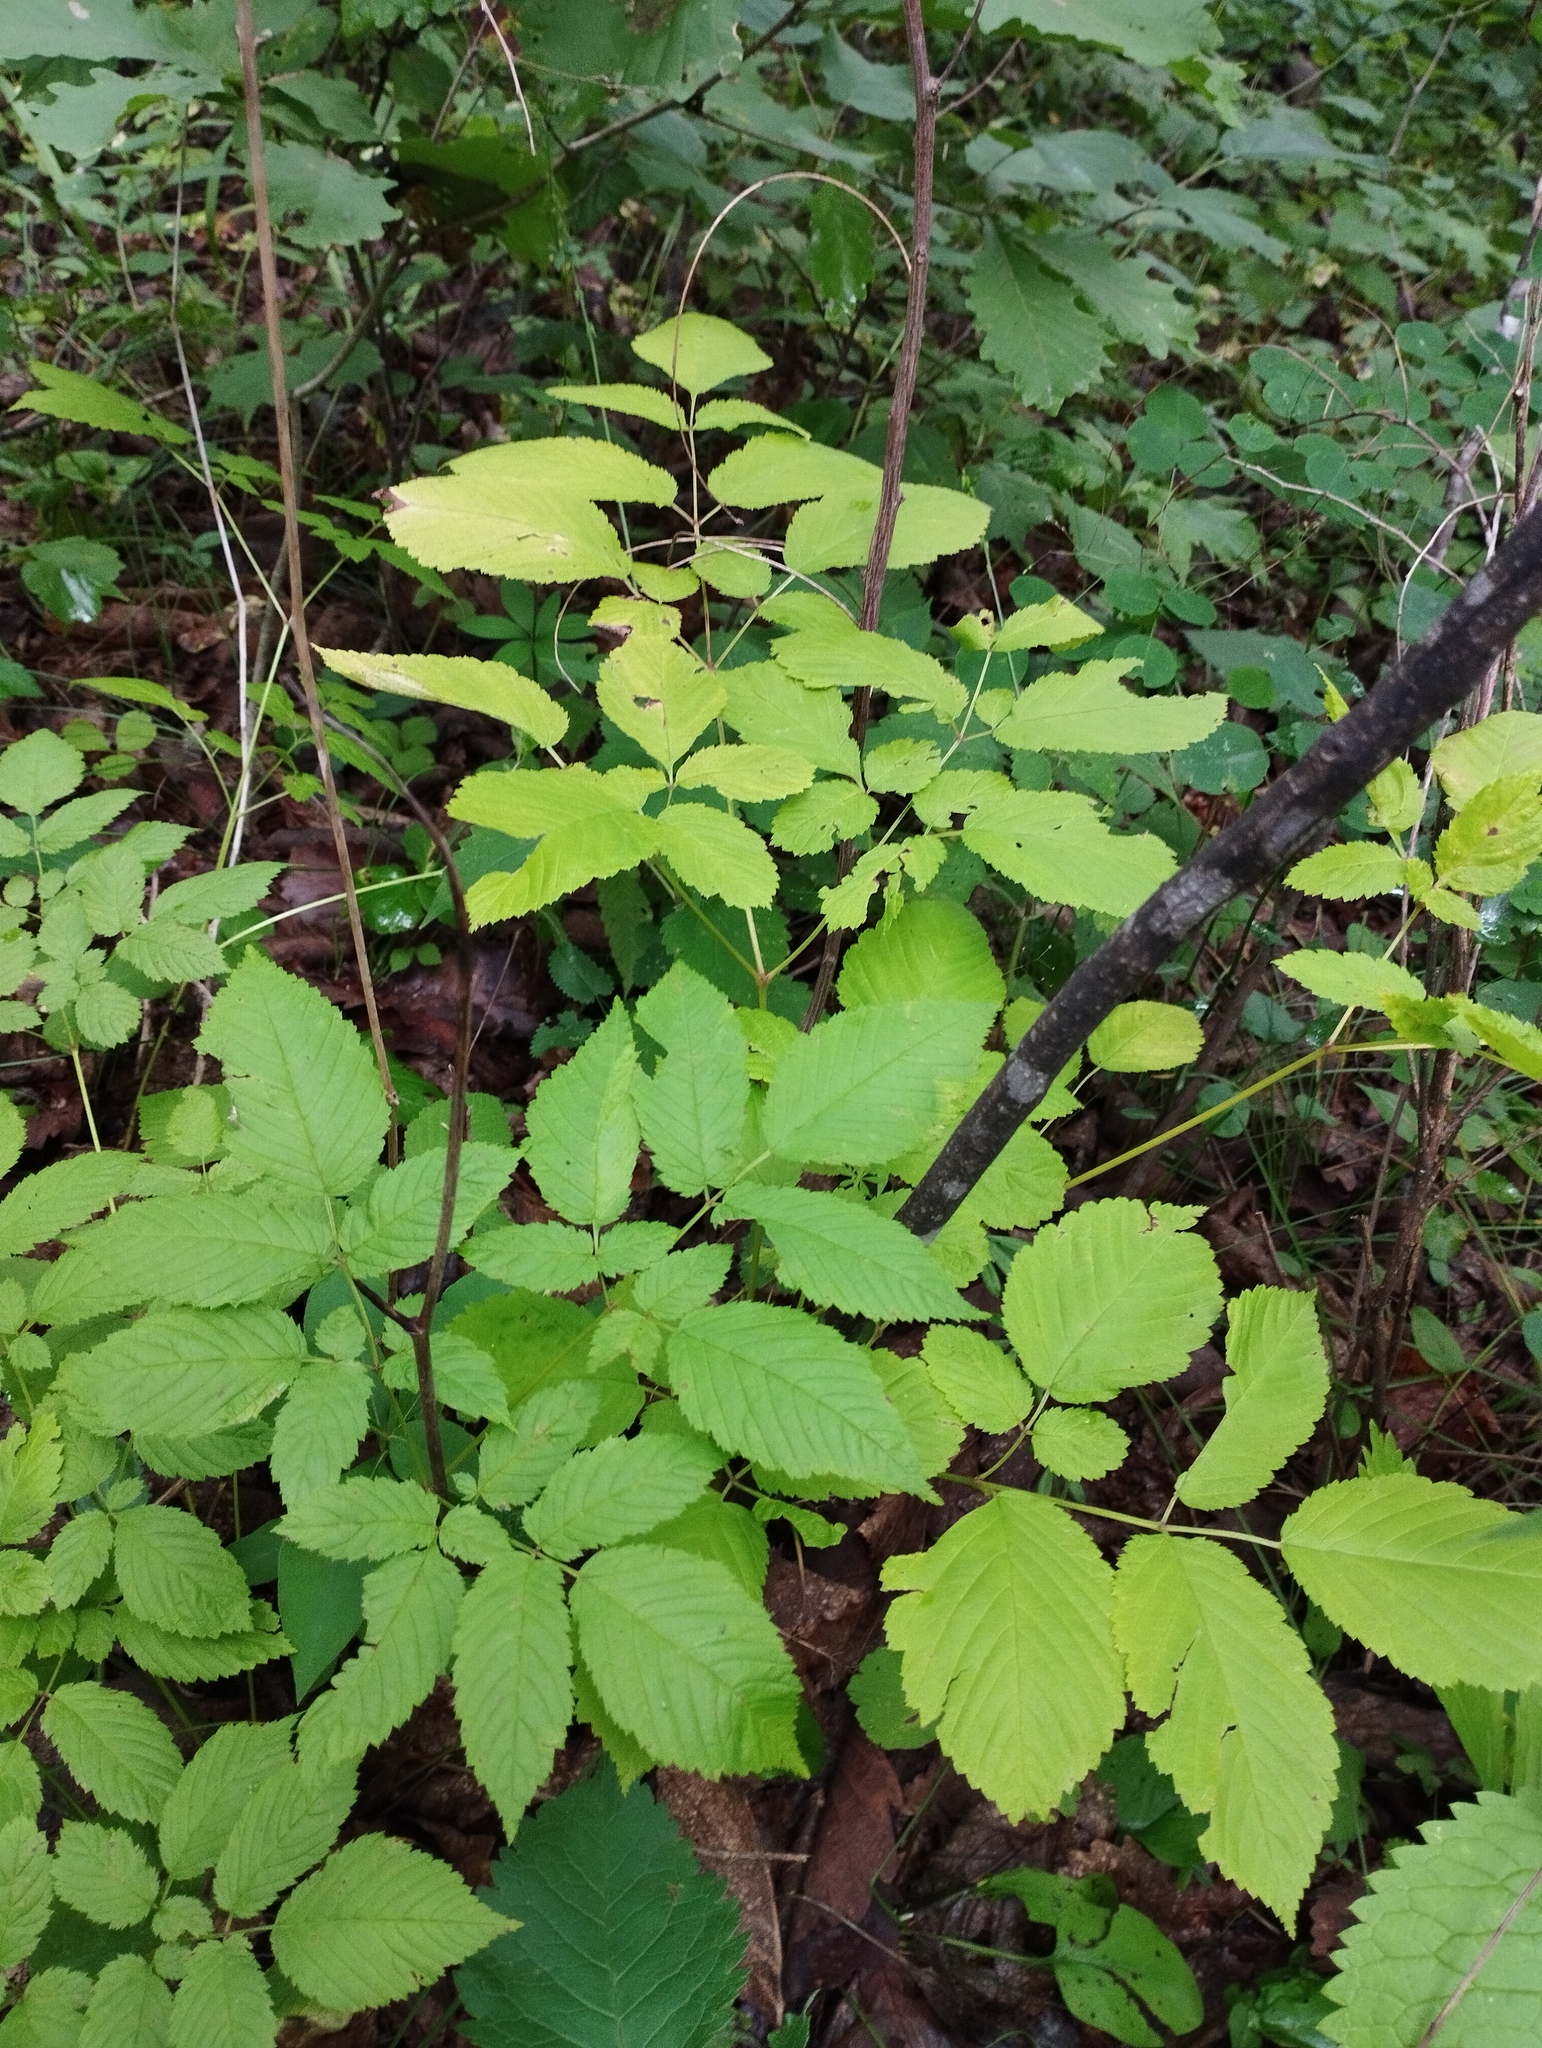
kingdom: Plantae
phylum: Tracheophyta
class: Magnoliopsida
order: Rosales
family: Rosaceae
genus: Aruncus
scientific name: Aruncus dioicus
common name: Buck's-beard
